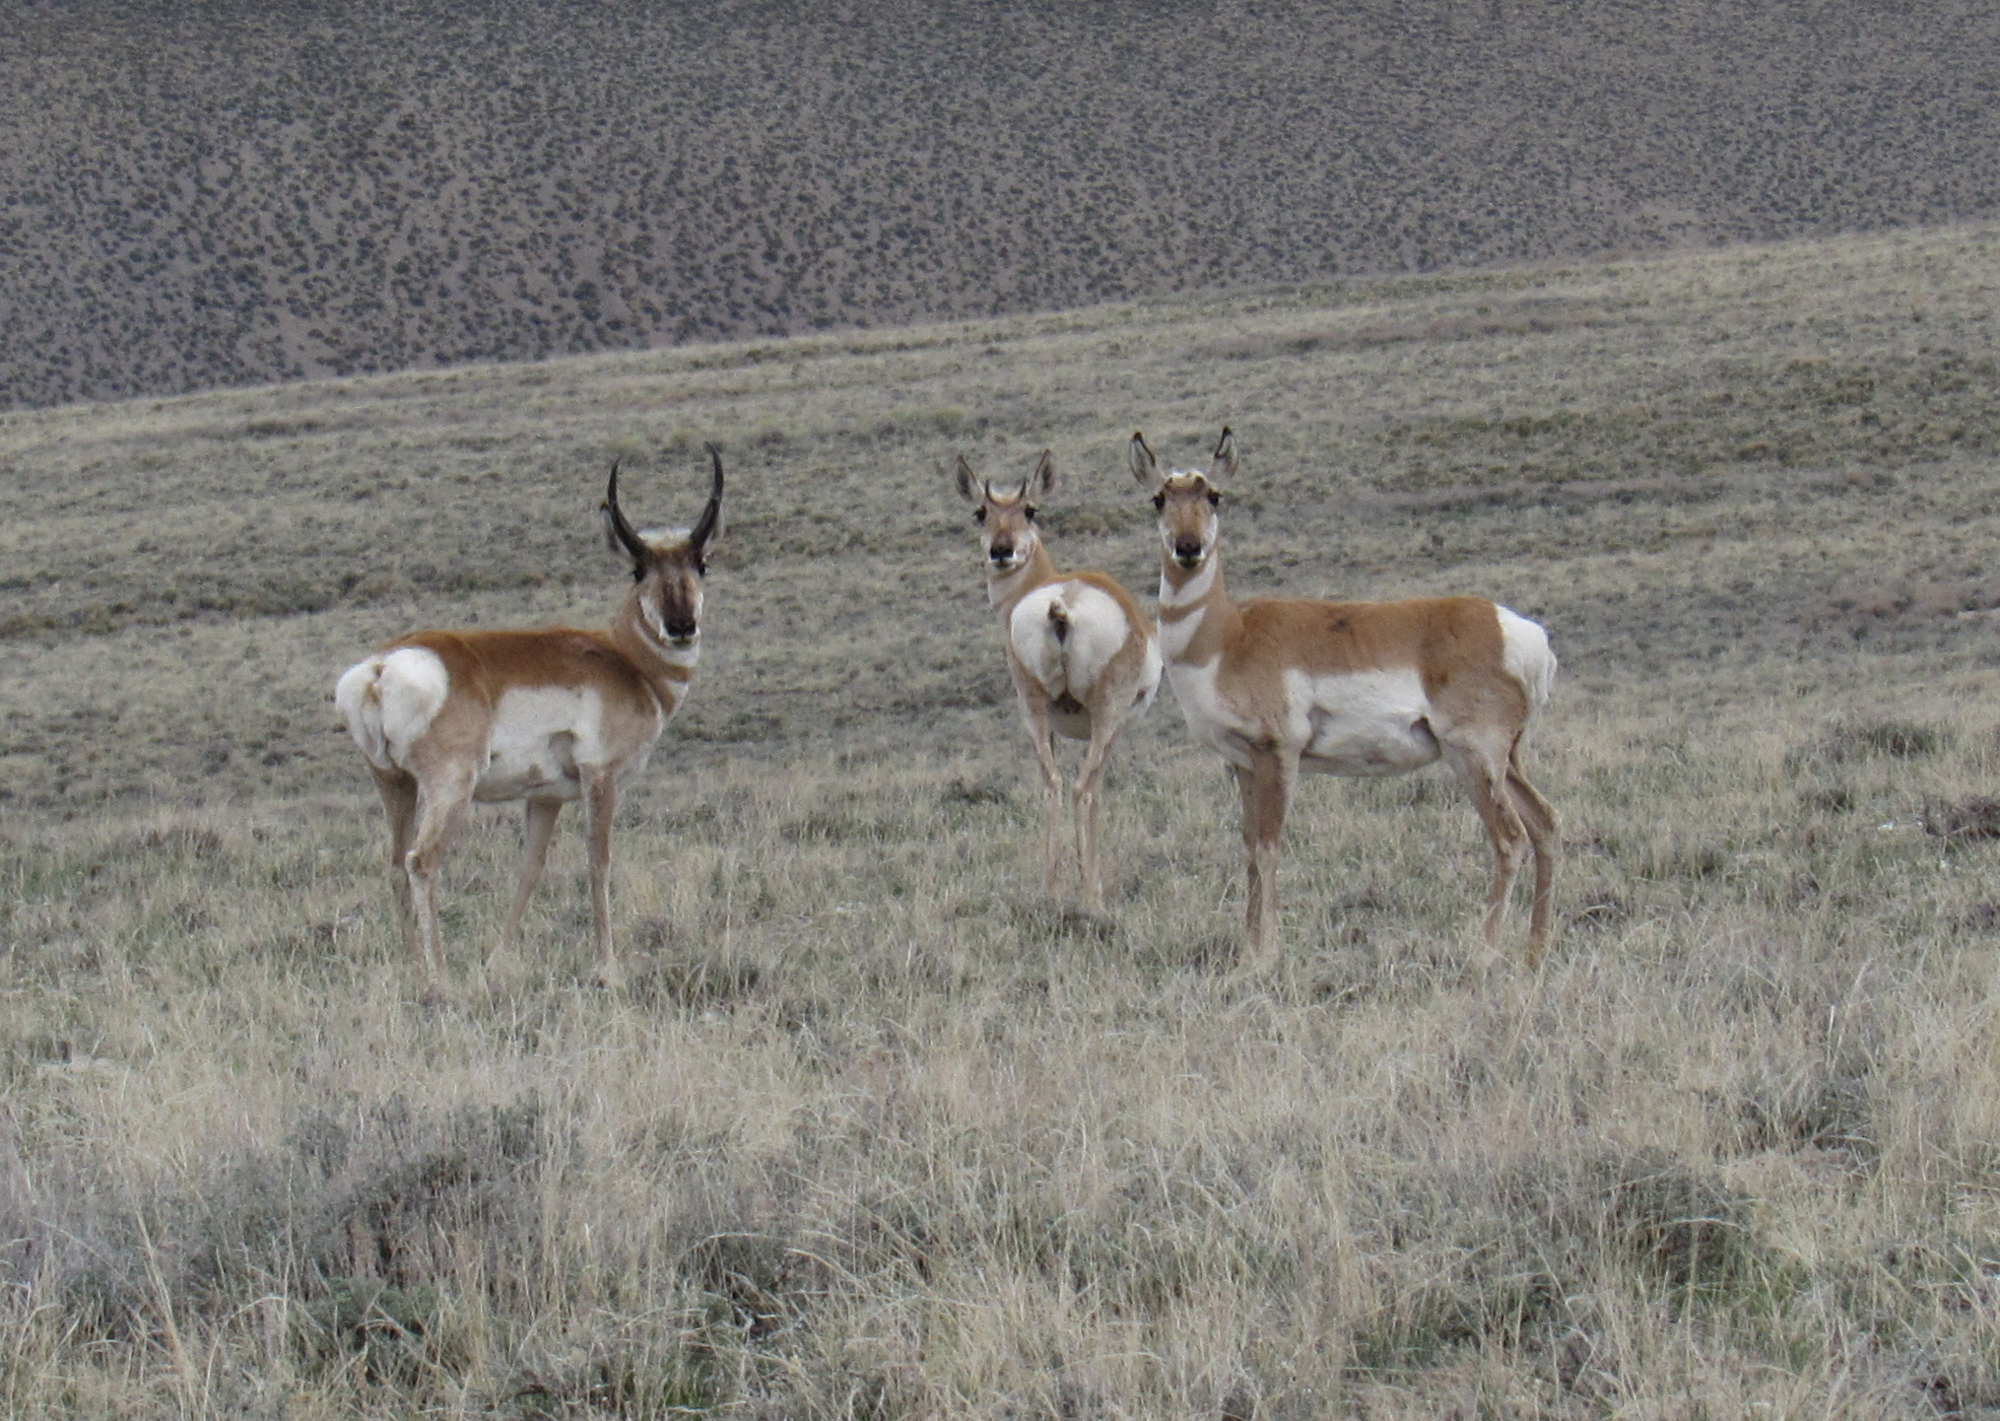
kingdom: Animalia
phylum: Chordata
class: Mammalia
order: Artiodactyla
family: Antilocapridae
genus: Antilocapra
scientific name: Antilocapra americana
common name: Pronghorn
